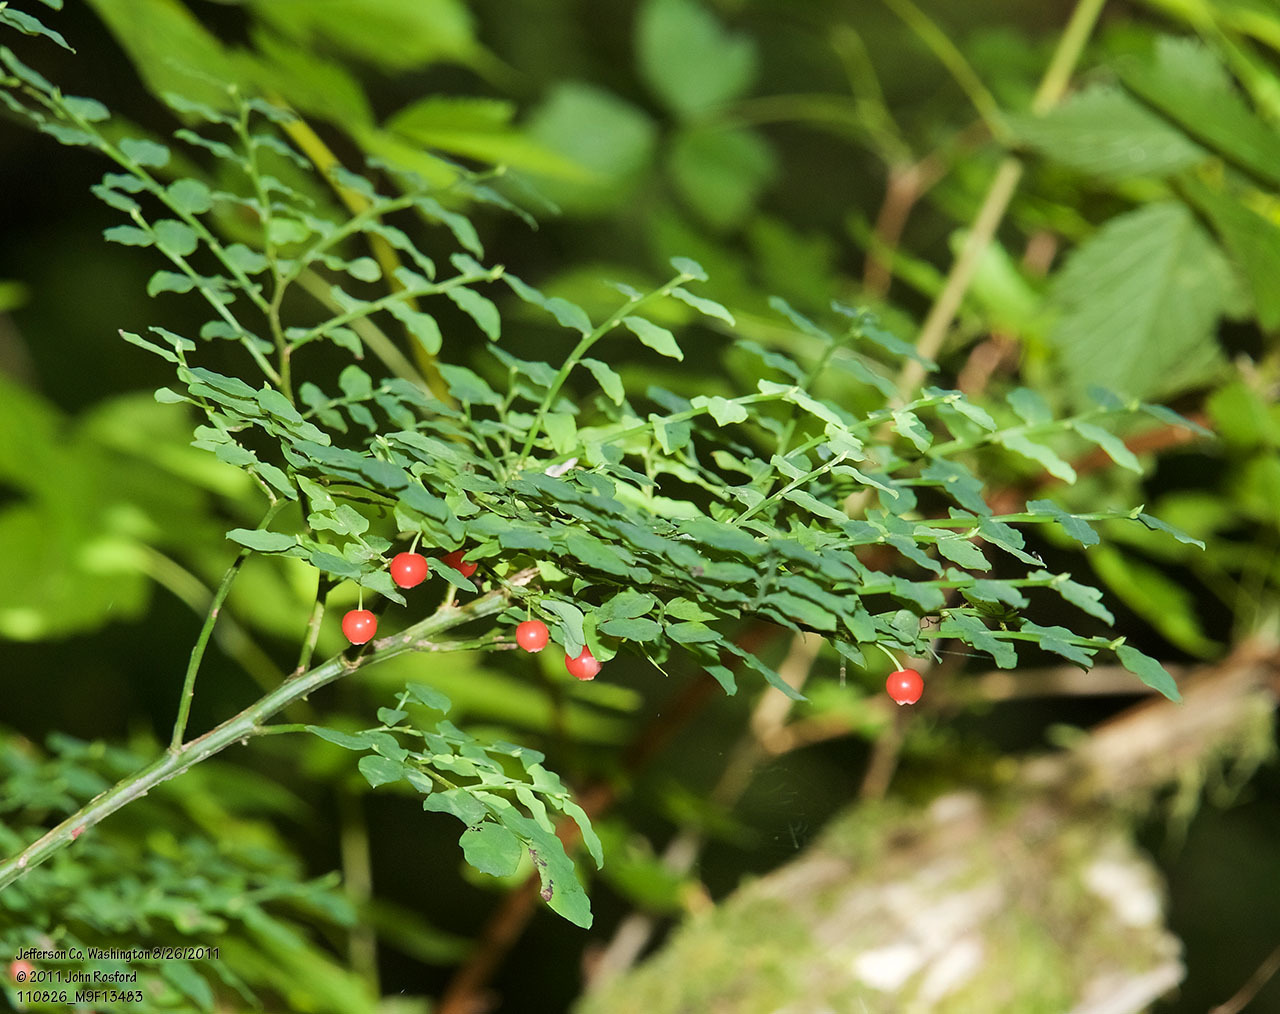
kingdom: Plantae
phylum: Tracheophyta
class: Magnoliopsida
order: Ericales
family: Ericaceae
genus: Vaccinium
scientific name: Vaccinium parvifolium
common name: Red-huckleberry
